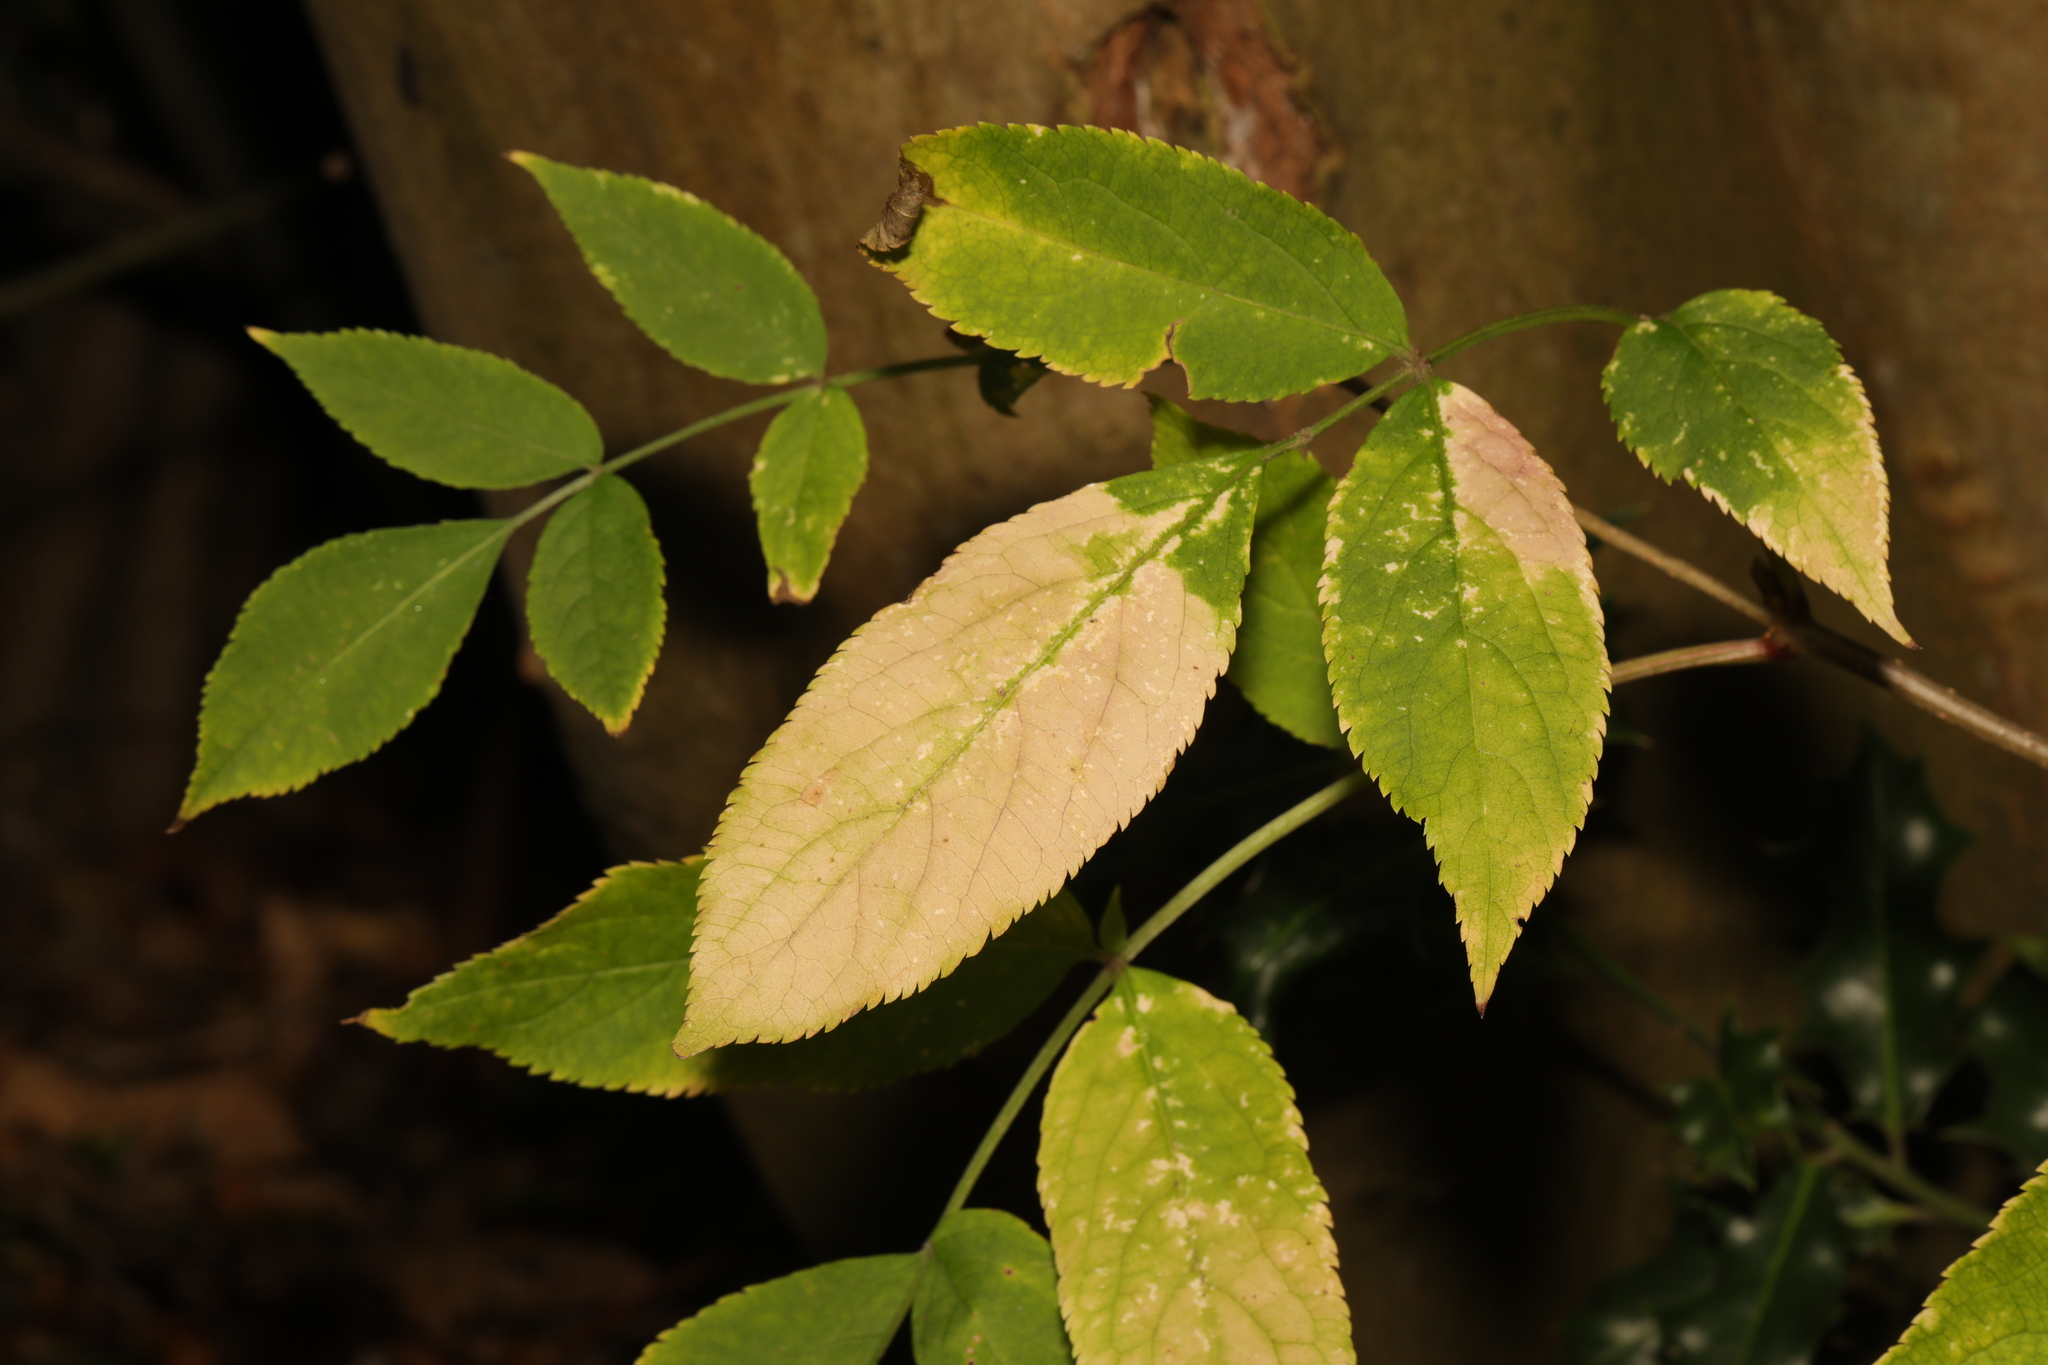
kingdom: Plantae
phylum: Tracheophyta
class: Magnoliopsida
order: Dipsacales
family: Viburnaceae
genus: Sambucus
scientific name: Sambucus nigra
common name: Elder
